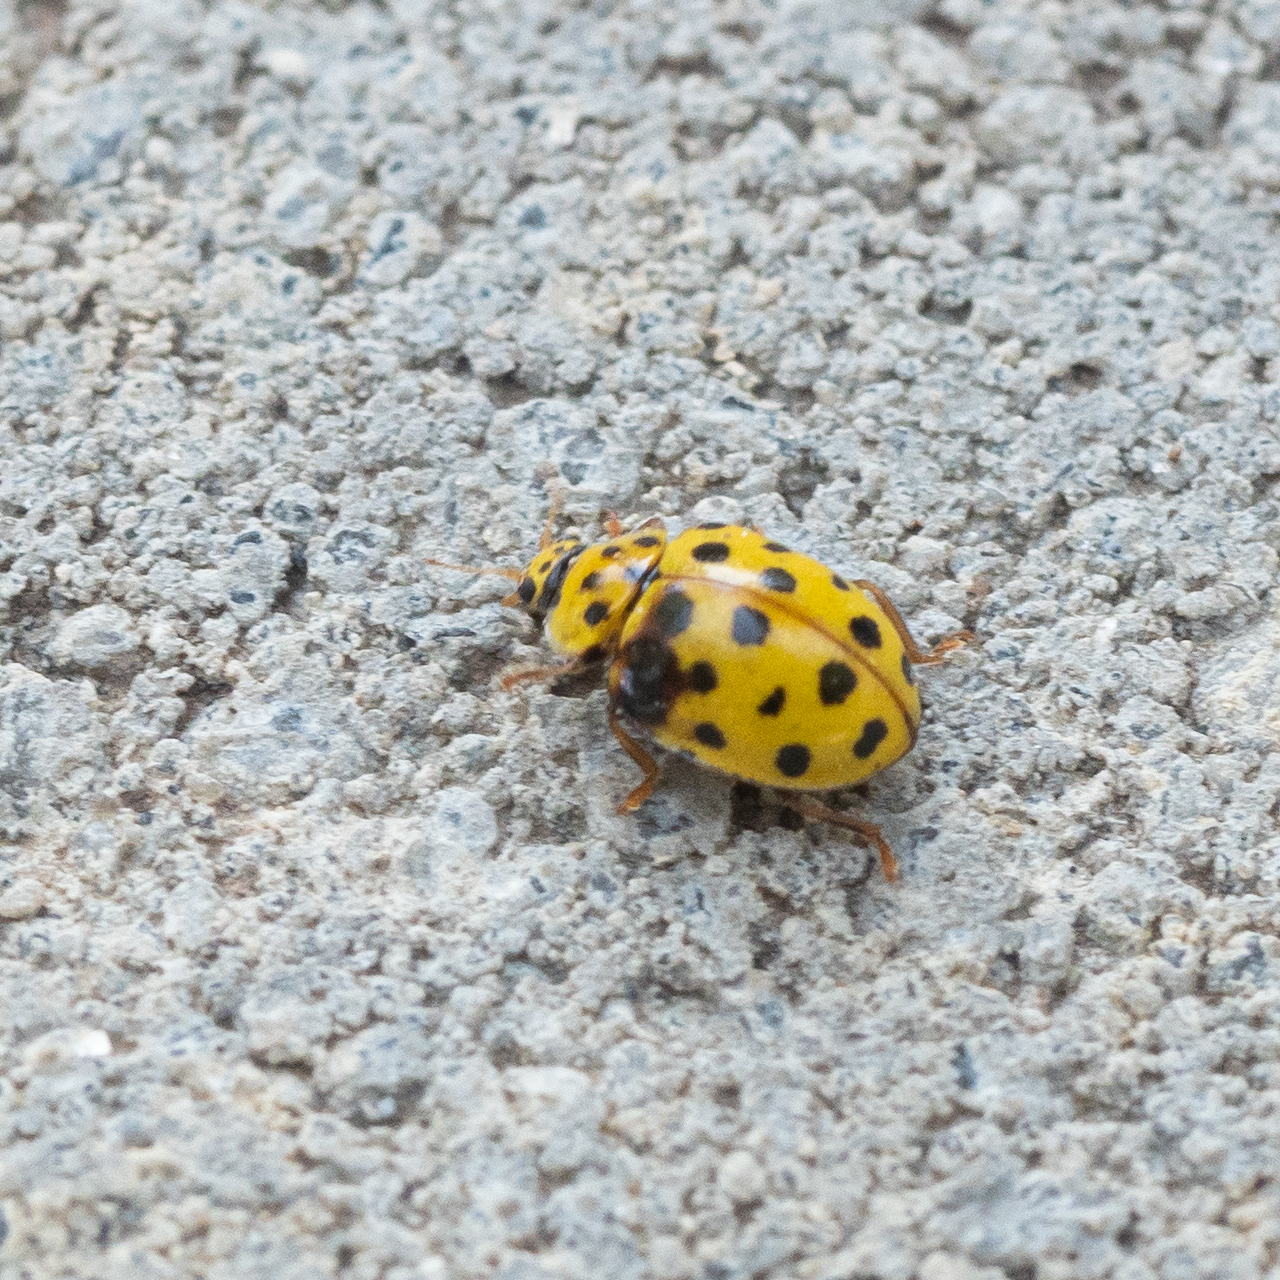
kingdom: Animalia
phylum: Arthropoda
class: Insecta
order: Coleoptera
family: Coccinellidae
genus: Psyllobora
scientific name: Psyllobora vigintiduopunctata
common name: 22-spot ladybird
